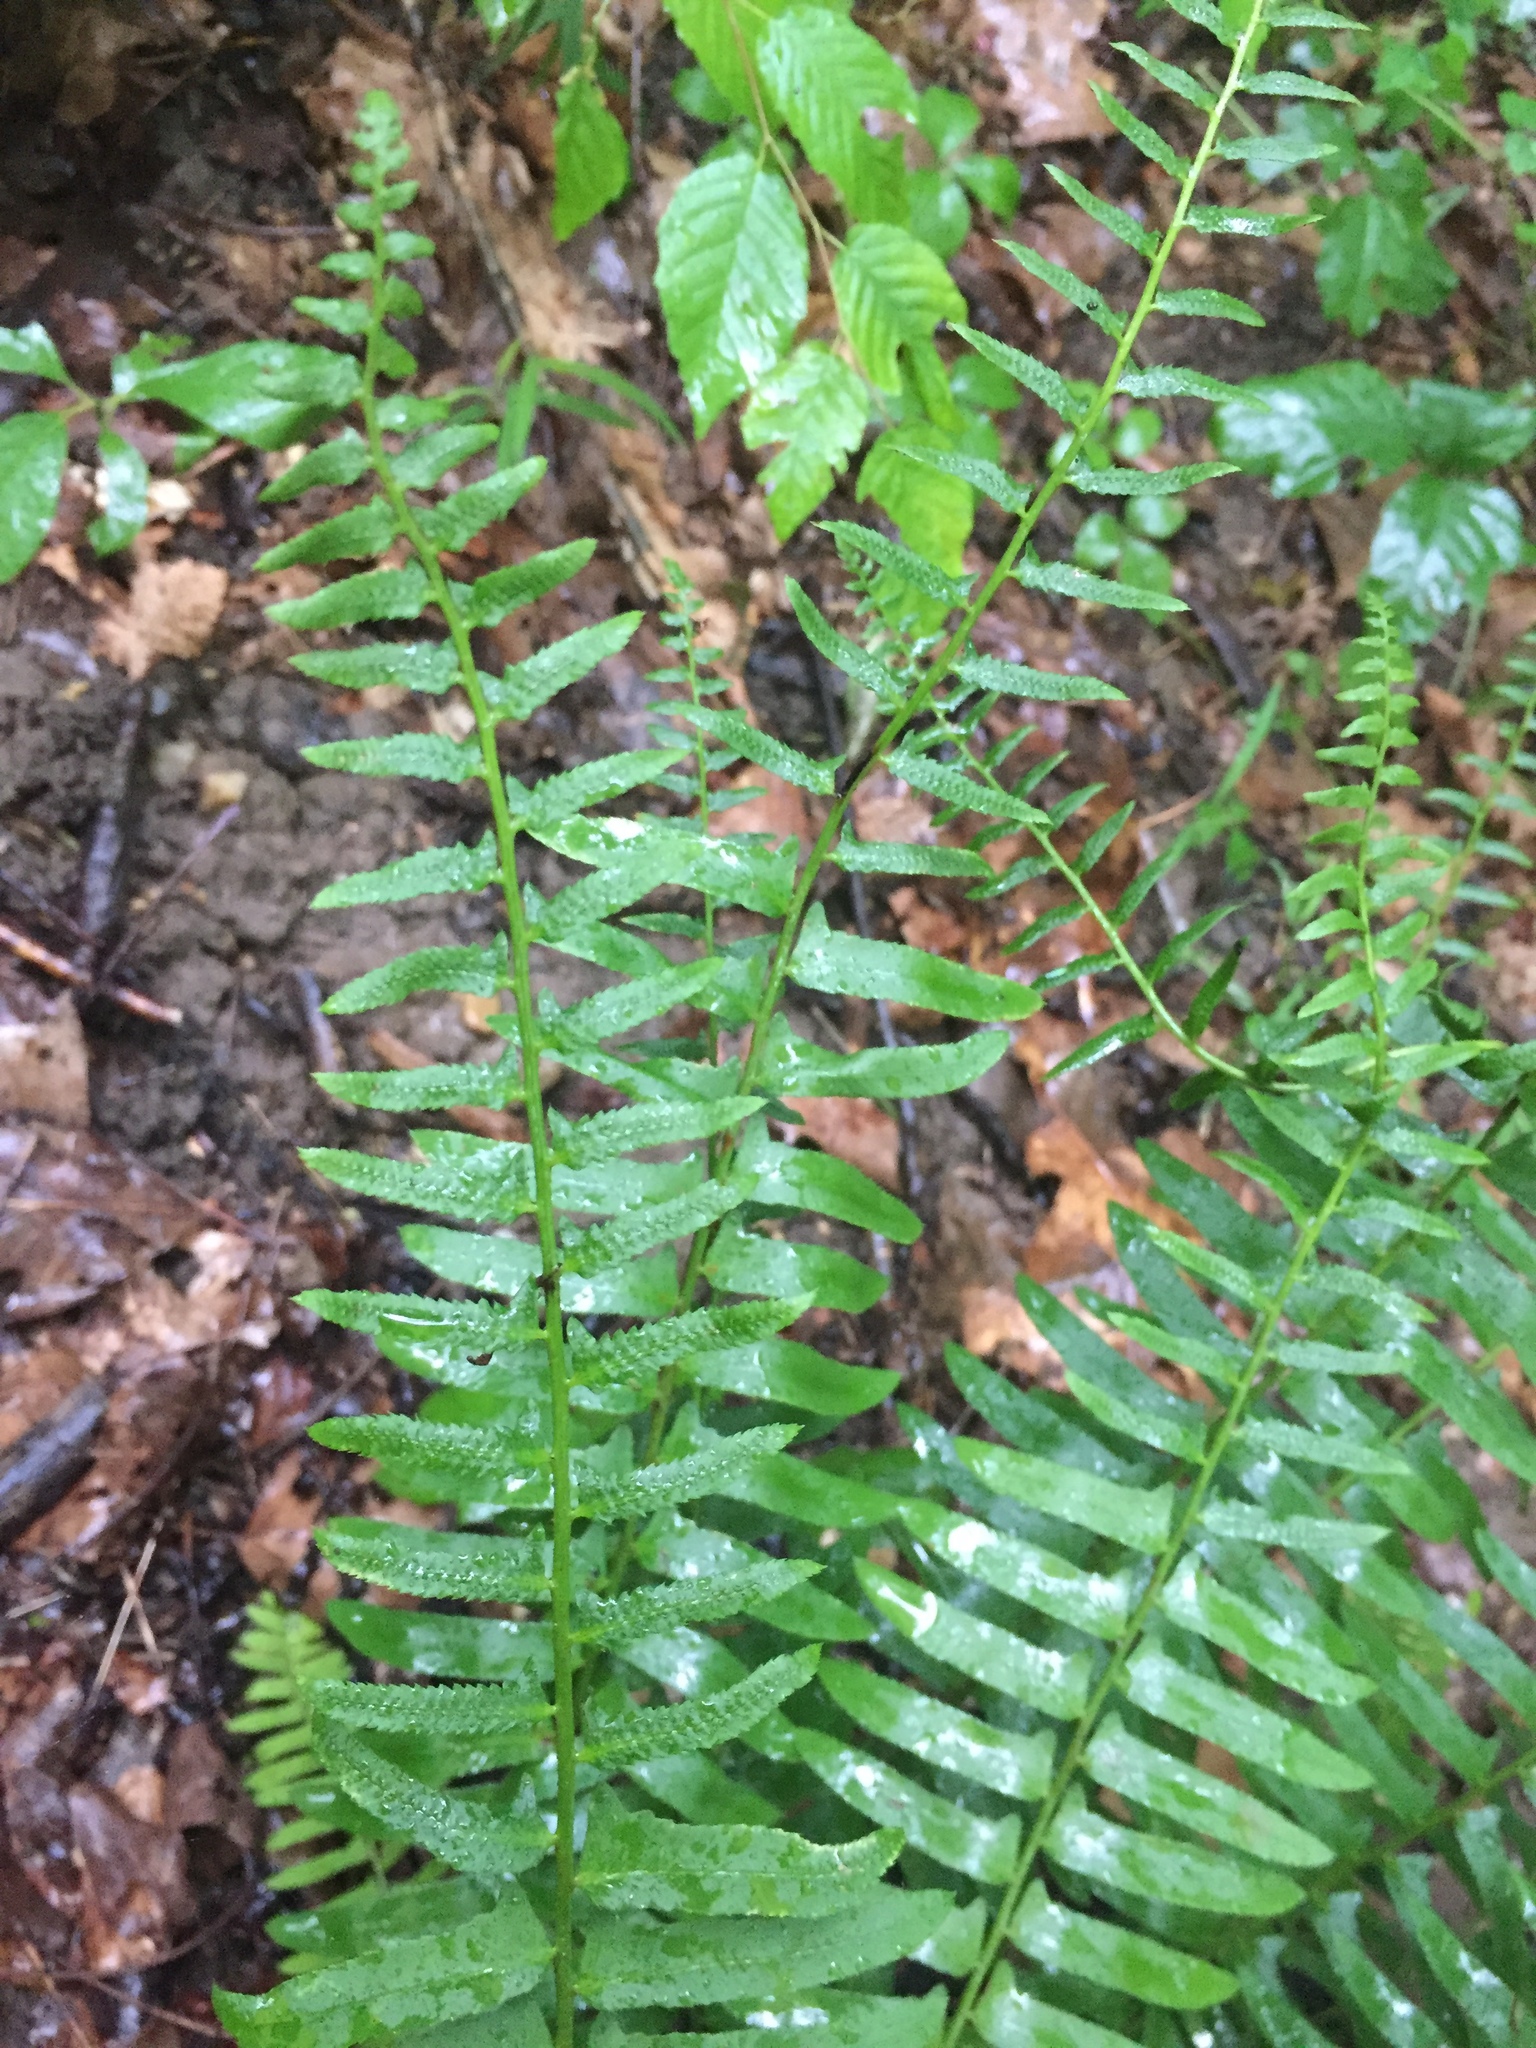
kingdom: Plantae
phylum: Tracheophyta
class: Polypodiopsida
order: Polypodiales
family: Dryopteridaceae
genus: Polystichum
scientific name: Polystichum acrostichoides
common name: Christmas fern
